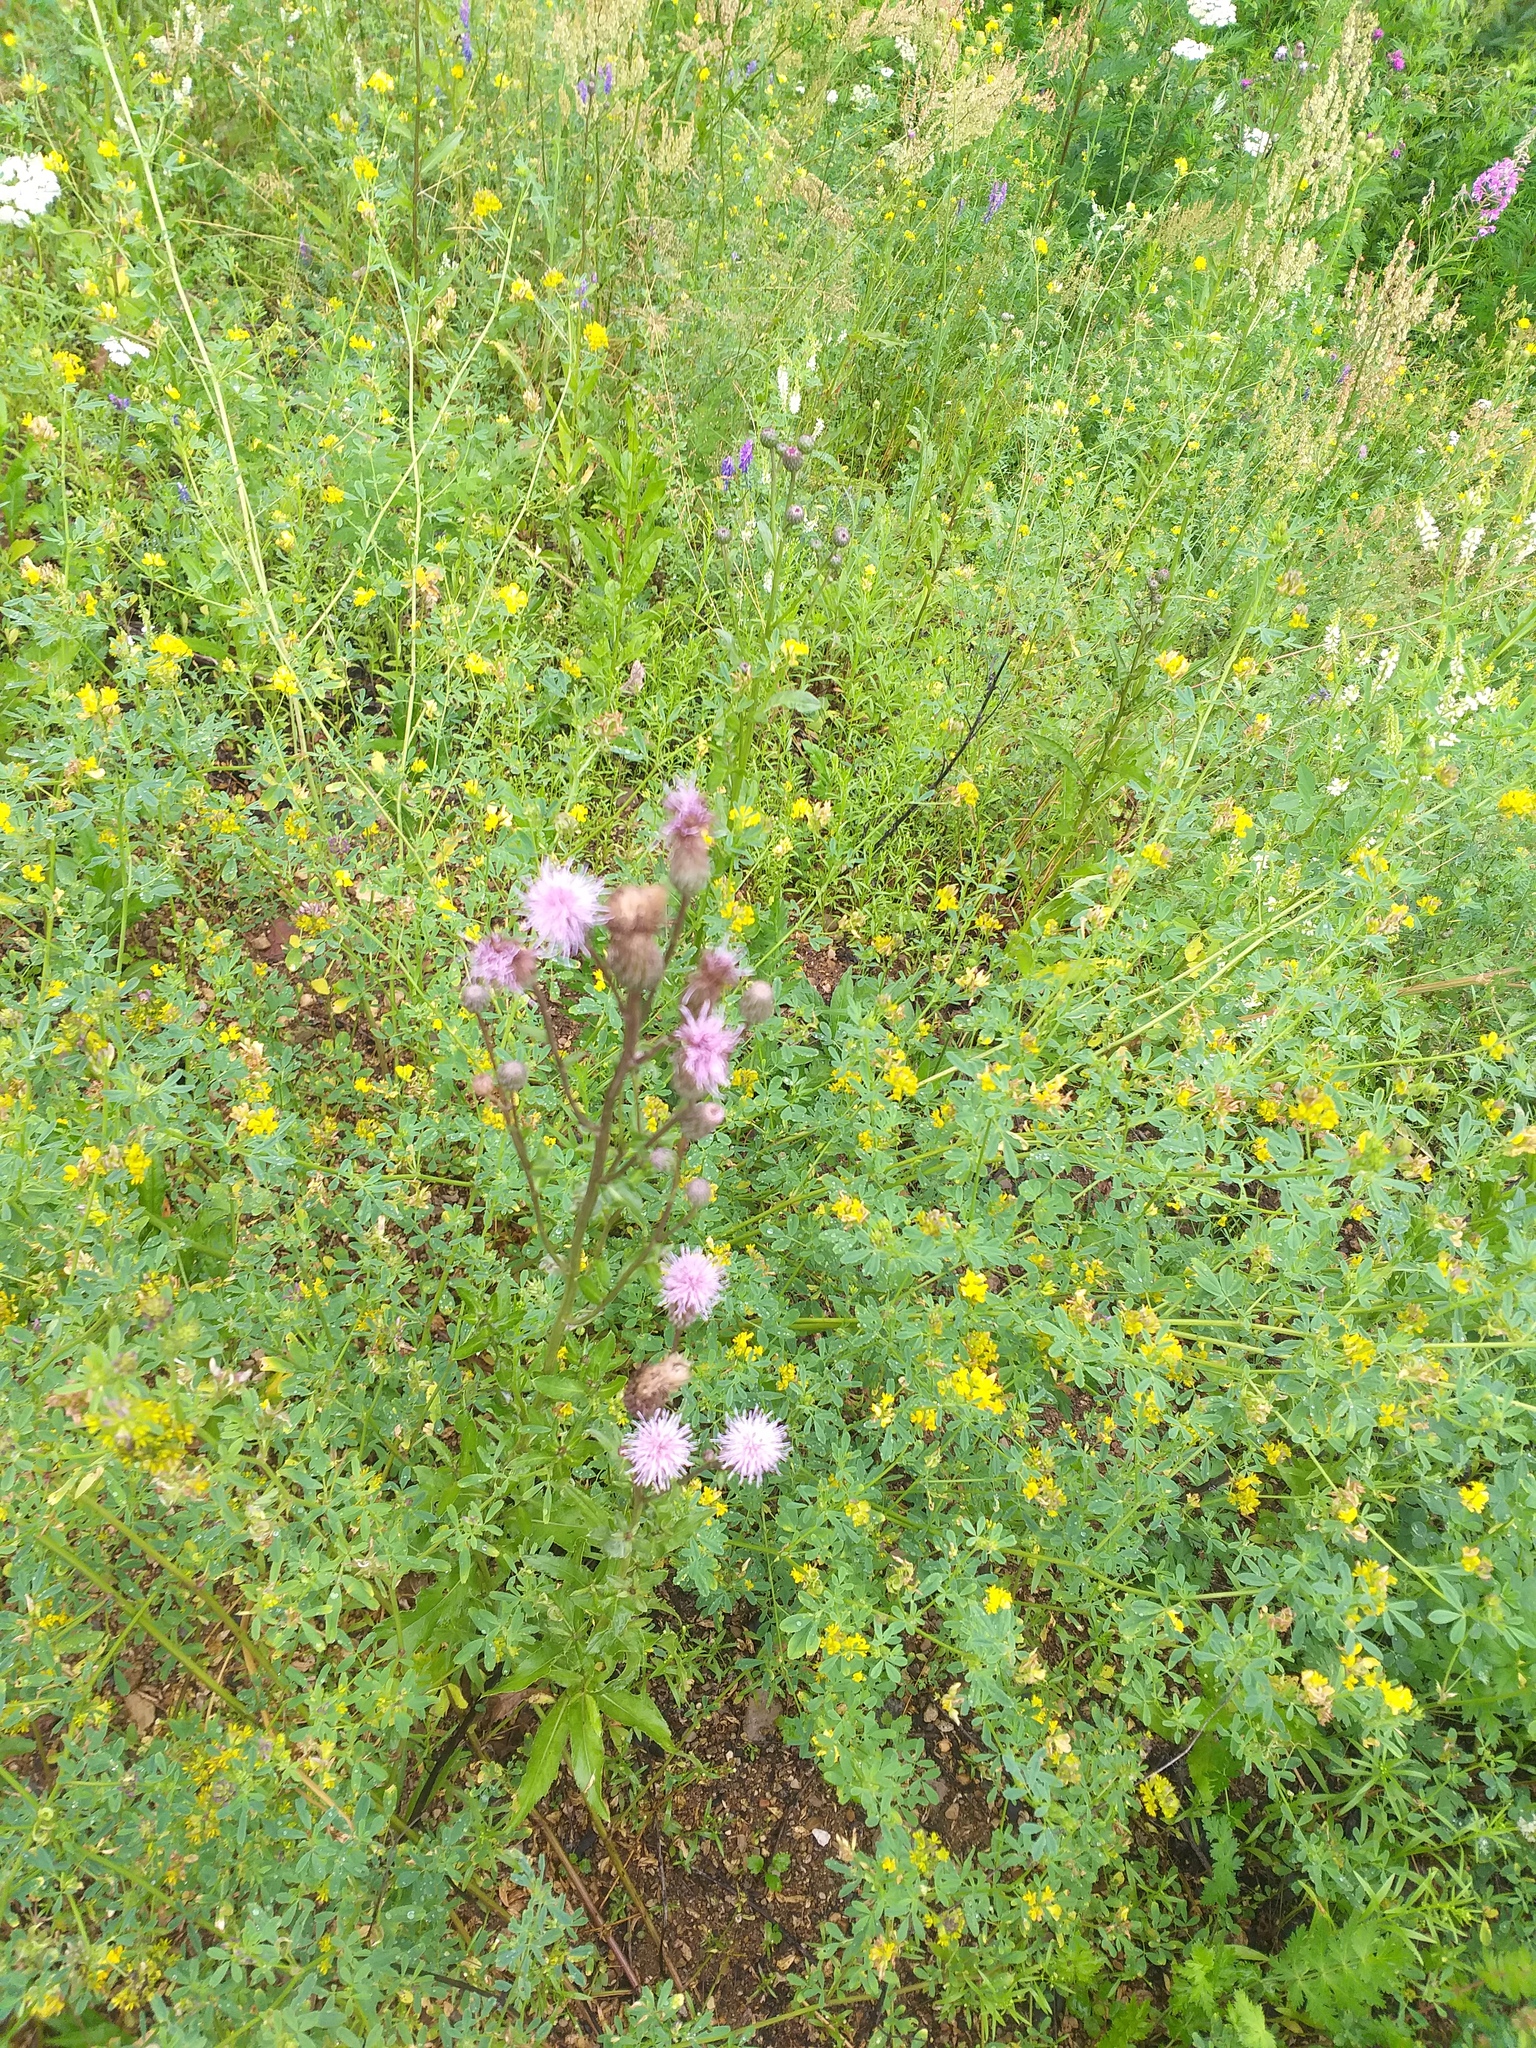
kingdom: Plantae
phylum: Tracheophyta
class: Magnoliopsida
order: Asterales
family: Asteraceae
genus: Cirsium
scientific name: Cirsium arvense
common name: Creeping thistle
